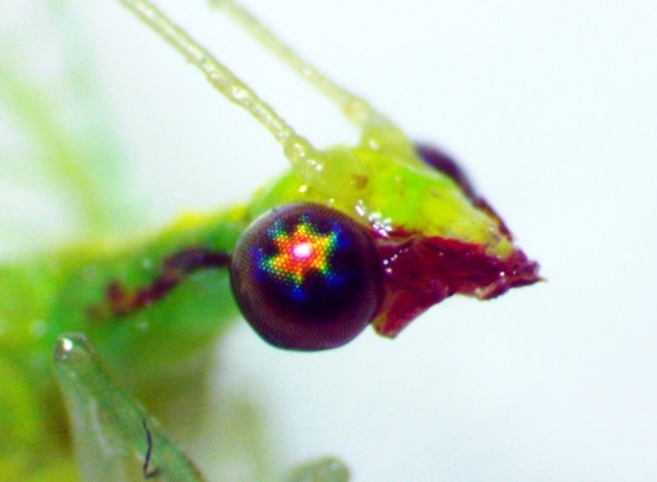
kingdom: Animalia
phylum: Arthropoda
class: Insecta
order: Neuroptera
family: Chrysopidae
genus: Chrysoperla
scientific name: Chrysoperla rufilabris
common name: Red-lipped green lacewing
